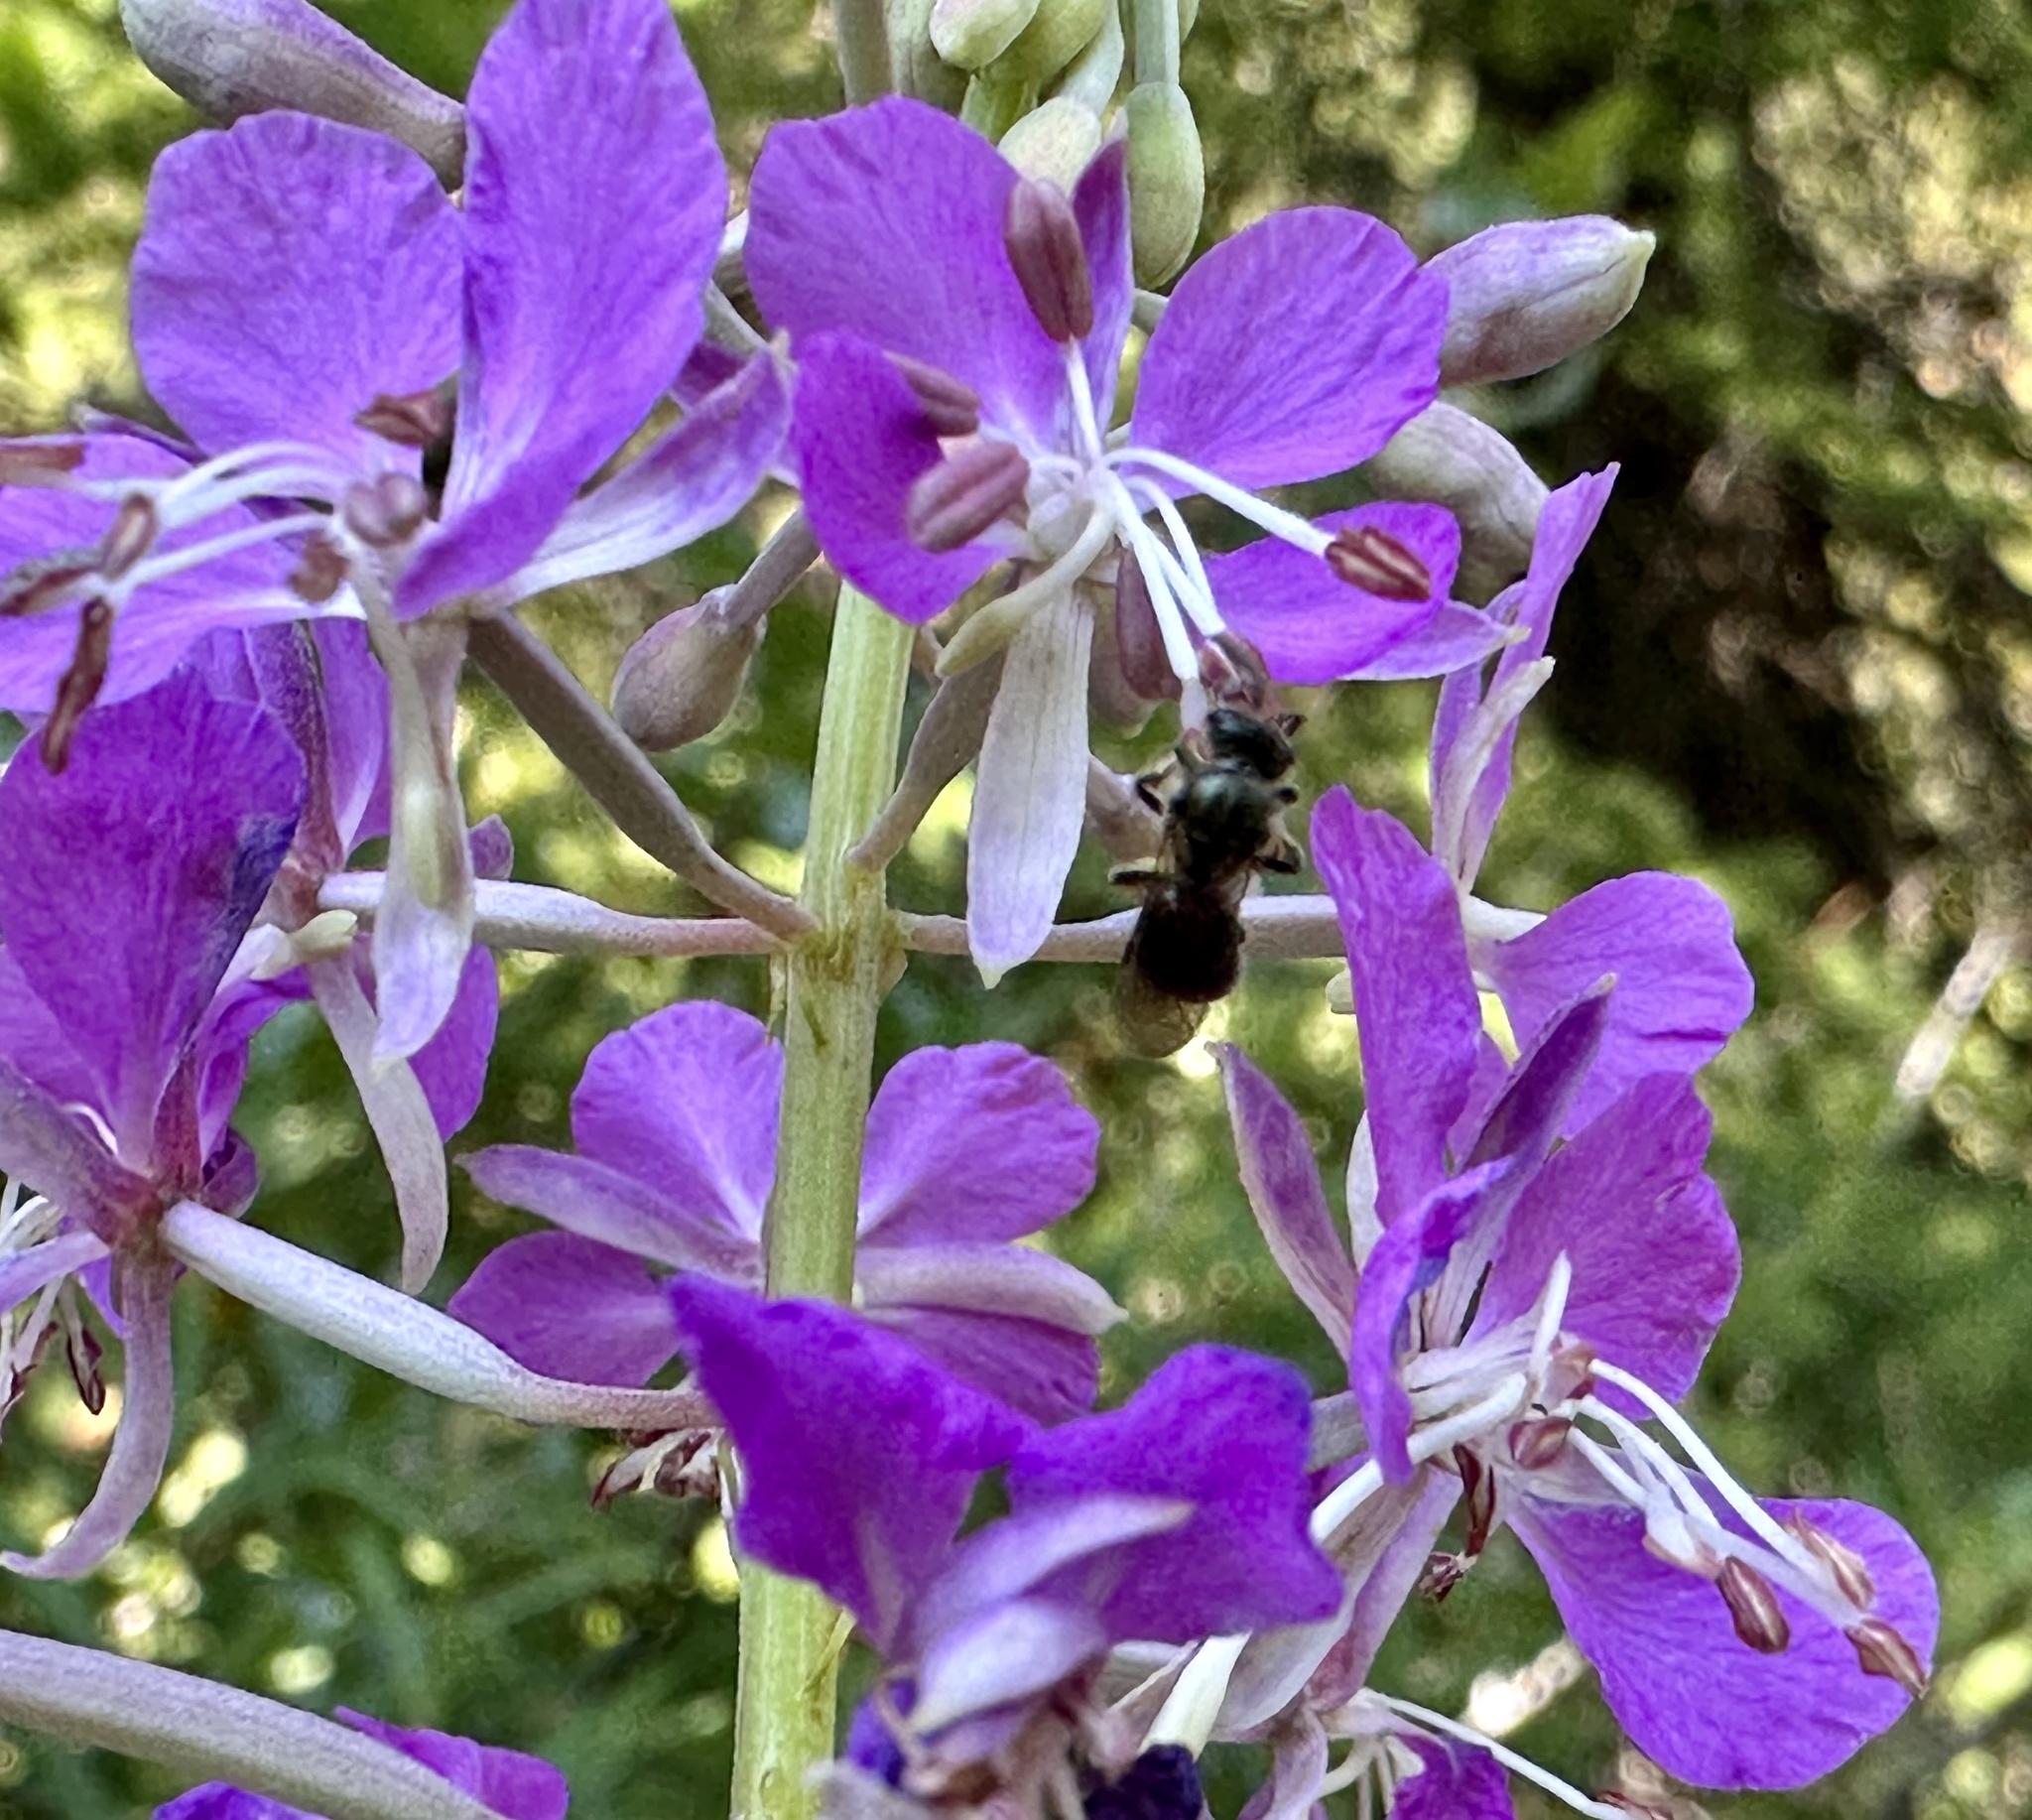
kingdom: Plantae
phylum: Tracheophyta
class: Magnoliopsida
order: Myrtales
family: Onagraceae
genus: Chamaenerion
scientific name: Chamaenerion angustifolium
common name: Fireweed
